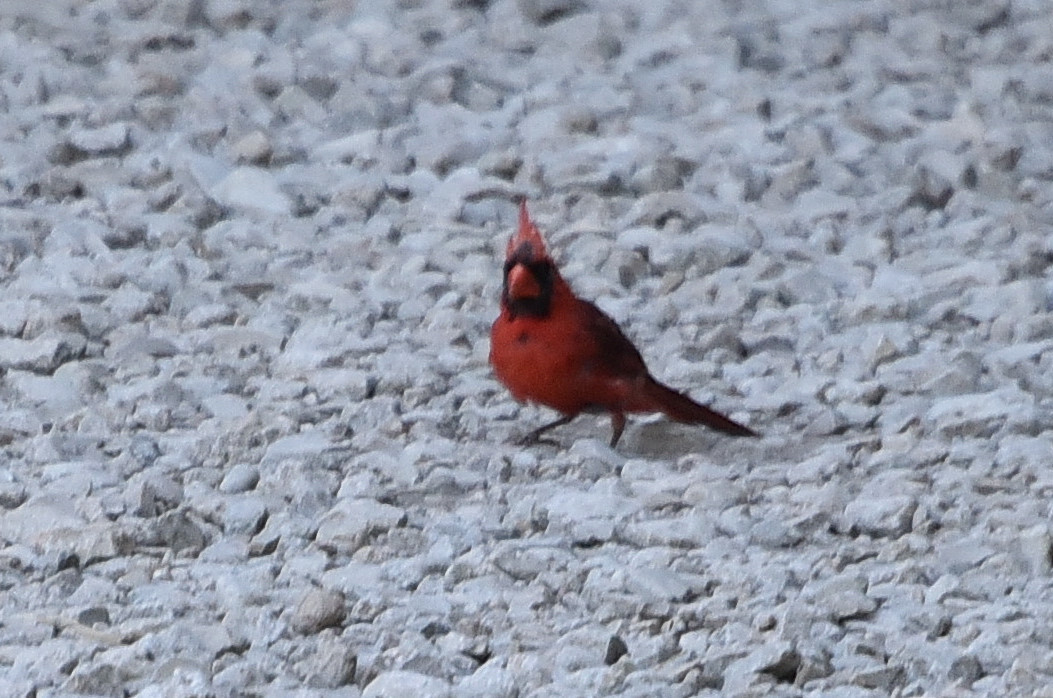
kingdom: Animalia
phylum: Chordata
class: Aves
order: Passeriformes
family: Cardinalidae
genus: Cardinalis
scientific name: Cardinalis cardinalis
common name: Northern cardinal
